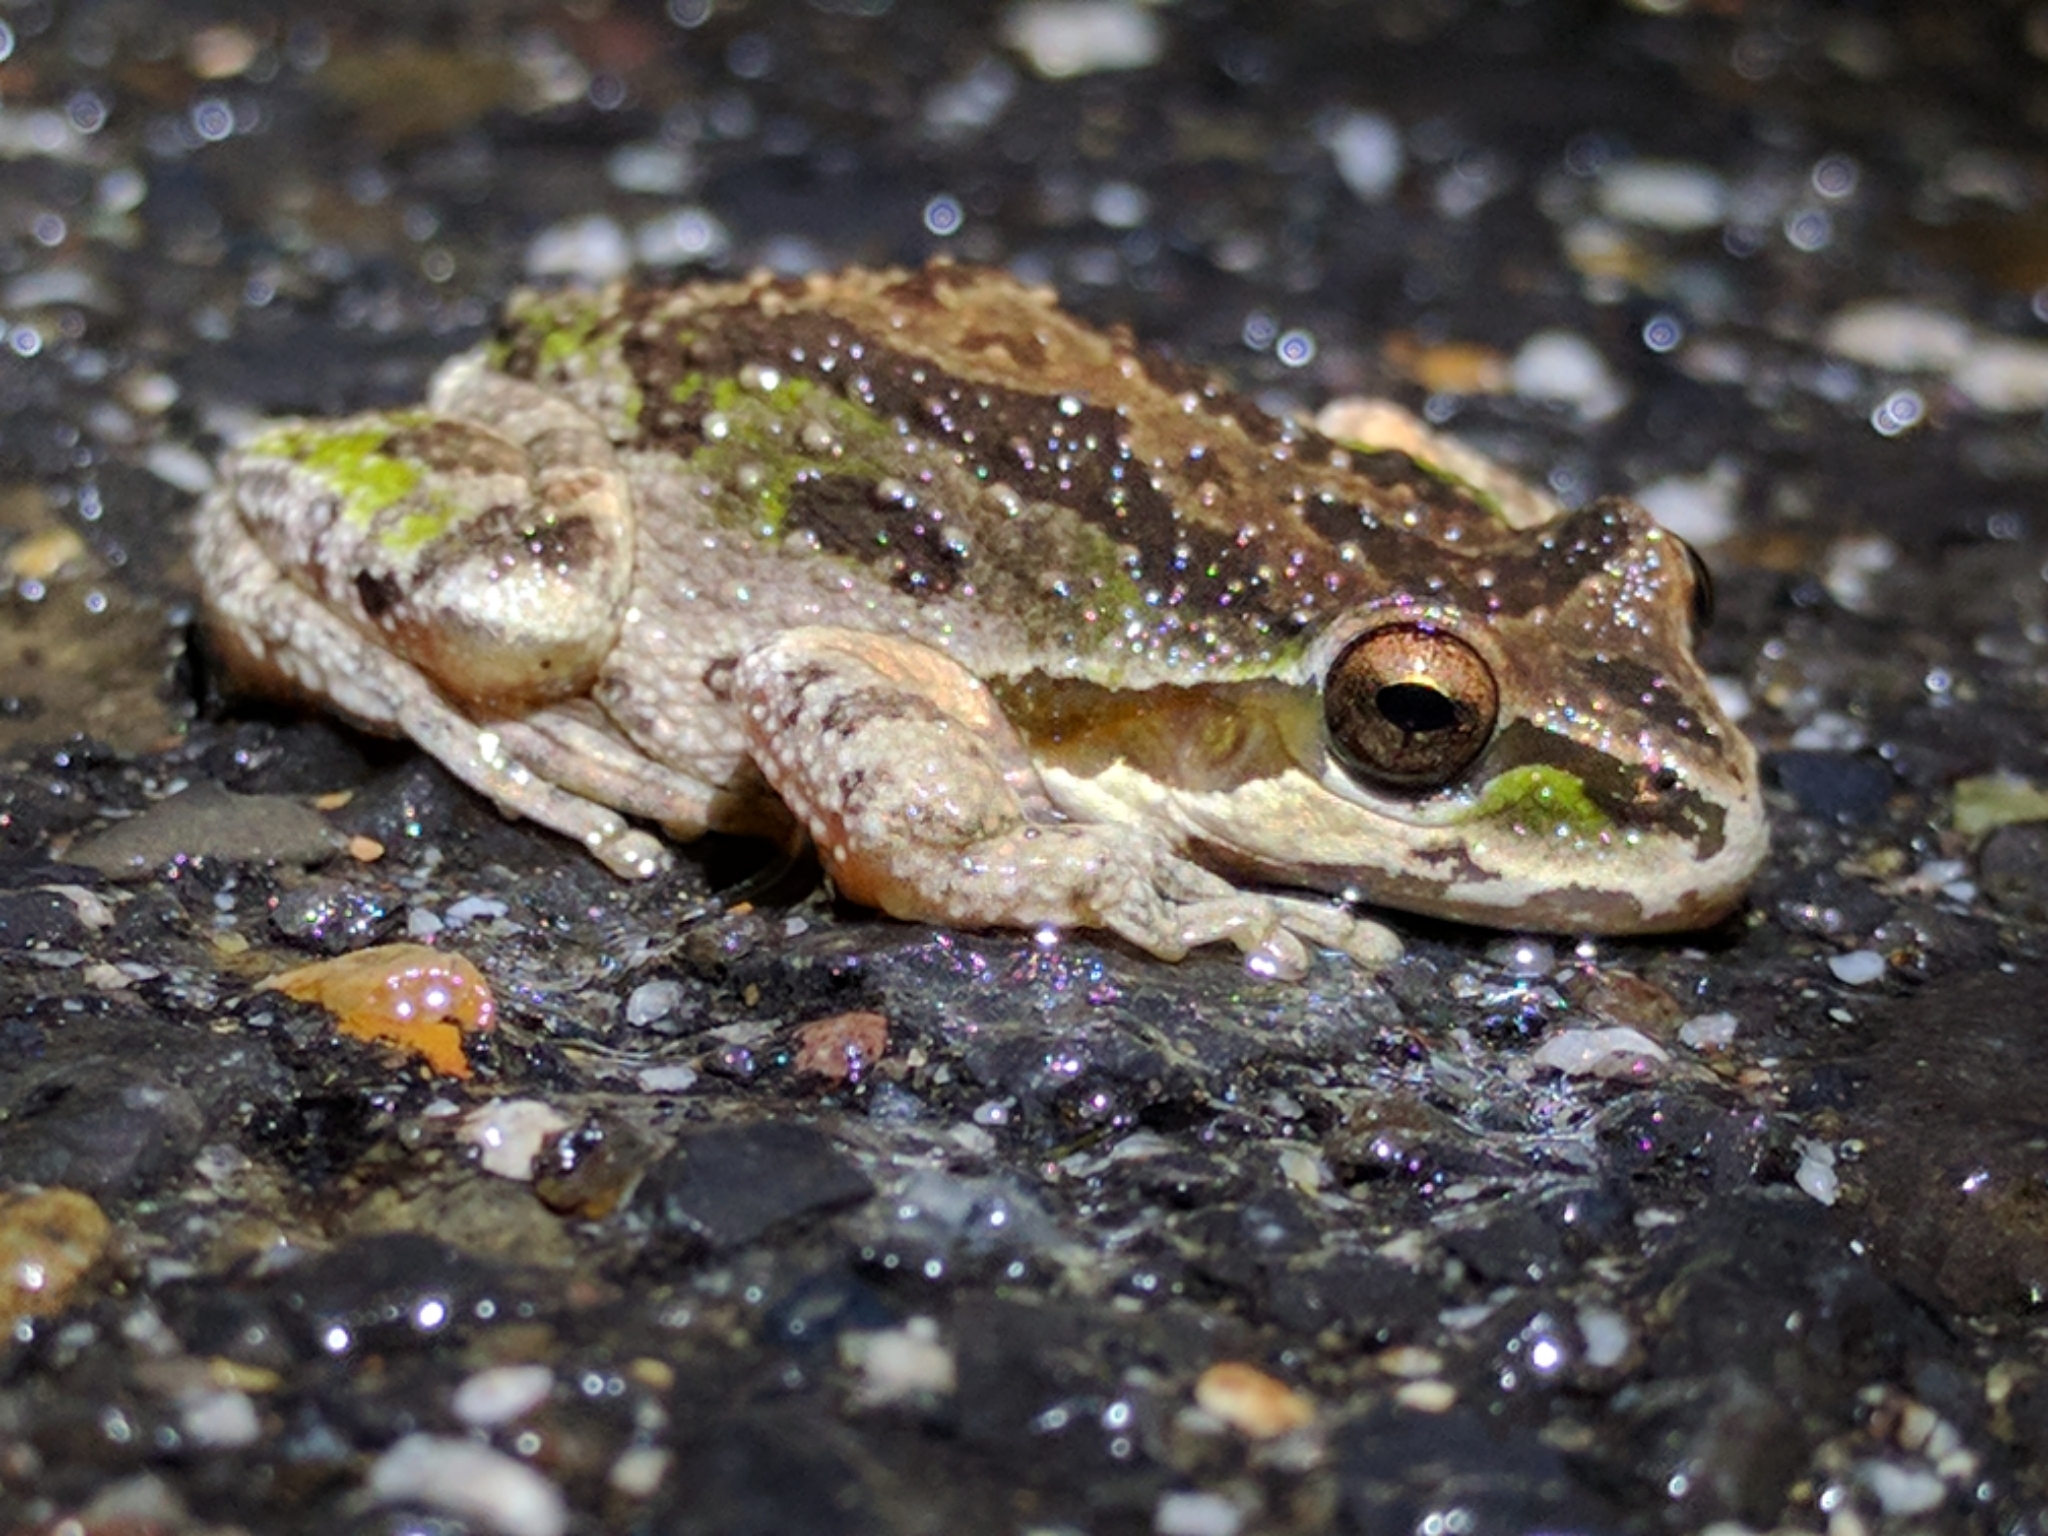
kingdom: Animalia
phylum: Chordata
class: Amphibia
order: Anura
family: Hylidae
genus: Pseudacris
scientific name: Pseudacris regilla
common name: Pacific chorus frog
